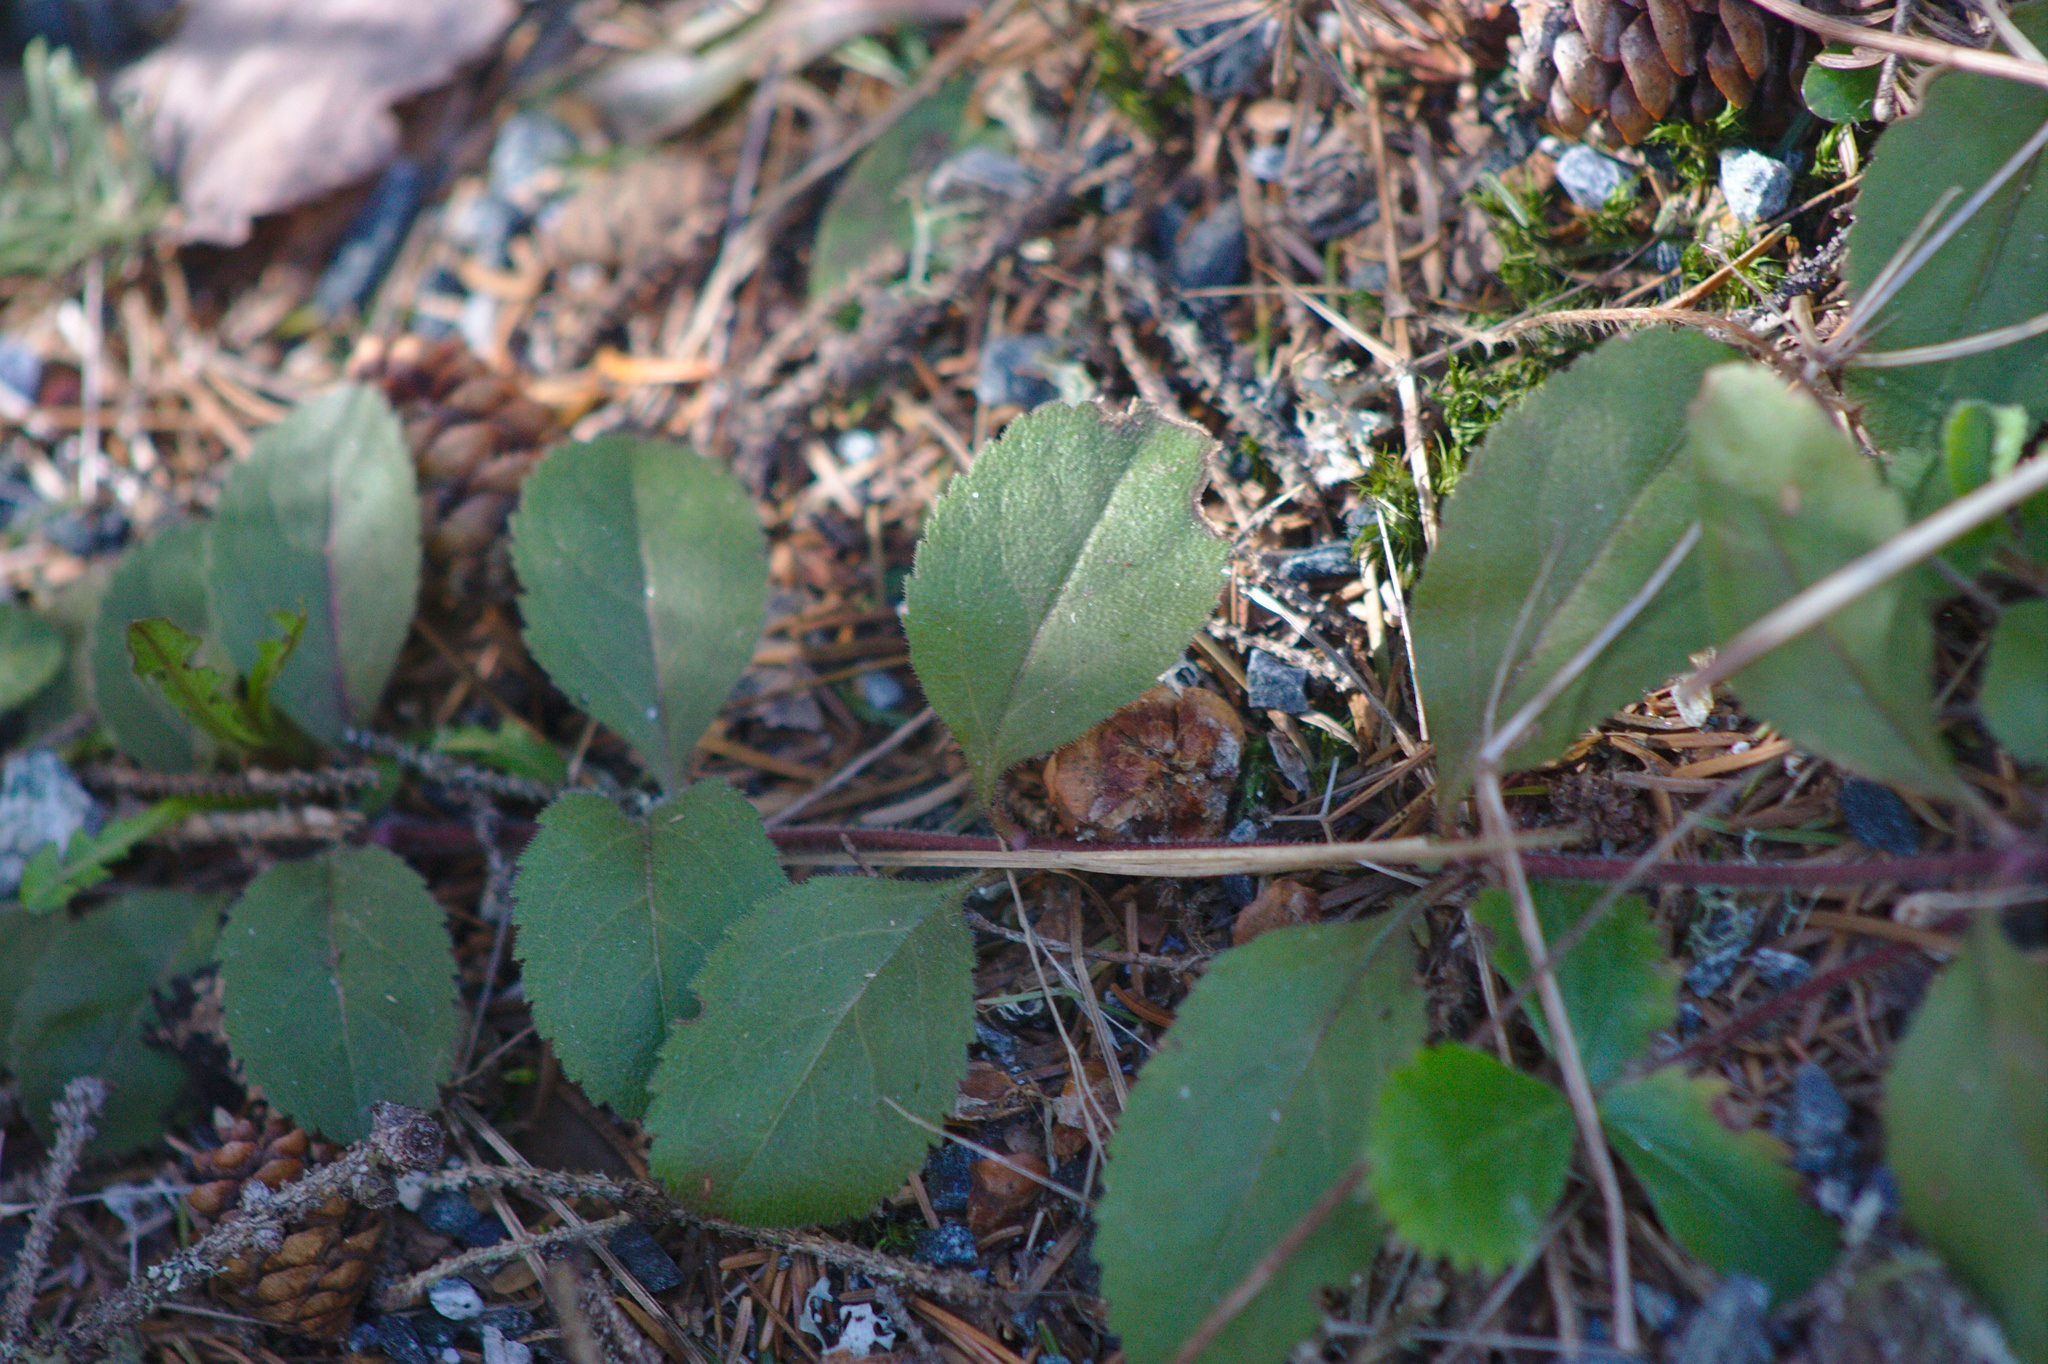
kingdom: Plantae
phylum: Tracheophyta
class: Magnoliopsida
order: Lamiales
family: Plantaginaceae
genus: Veronica
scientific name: Veronica officinalis
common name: Common speedwell
